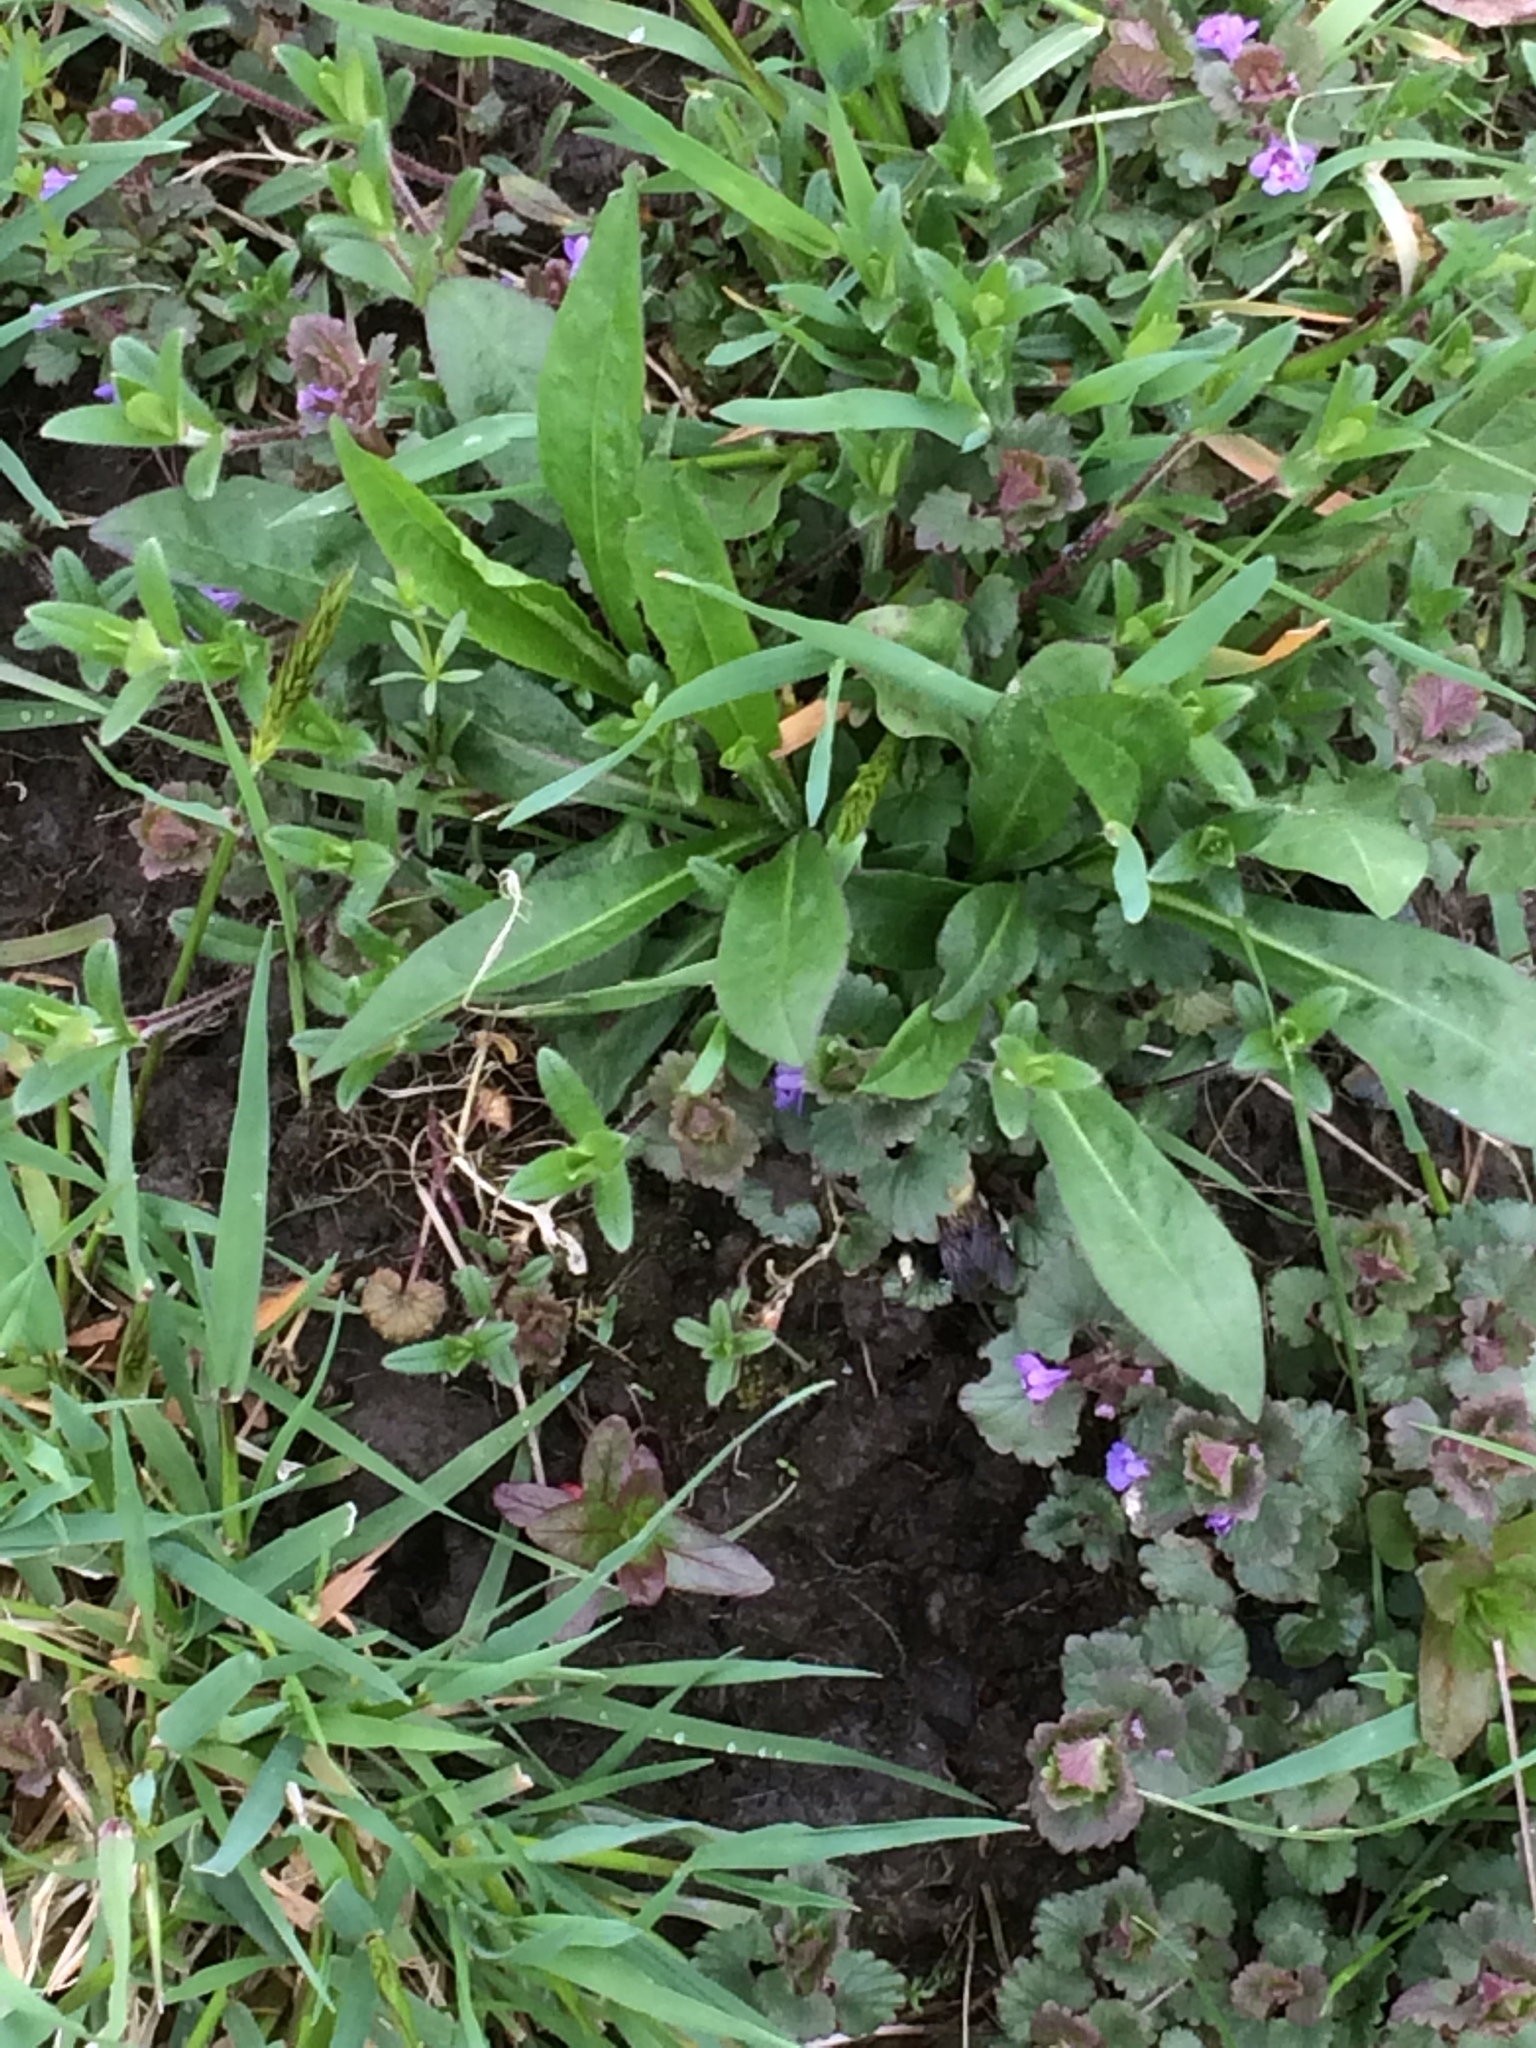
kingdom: Plantae
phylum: Tracheophyta
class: Magnoliopsida
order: Lamiales
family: Lamiaceae
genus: Glechoma
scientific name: Glechoma hederacea
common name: Ground ivy
